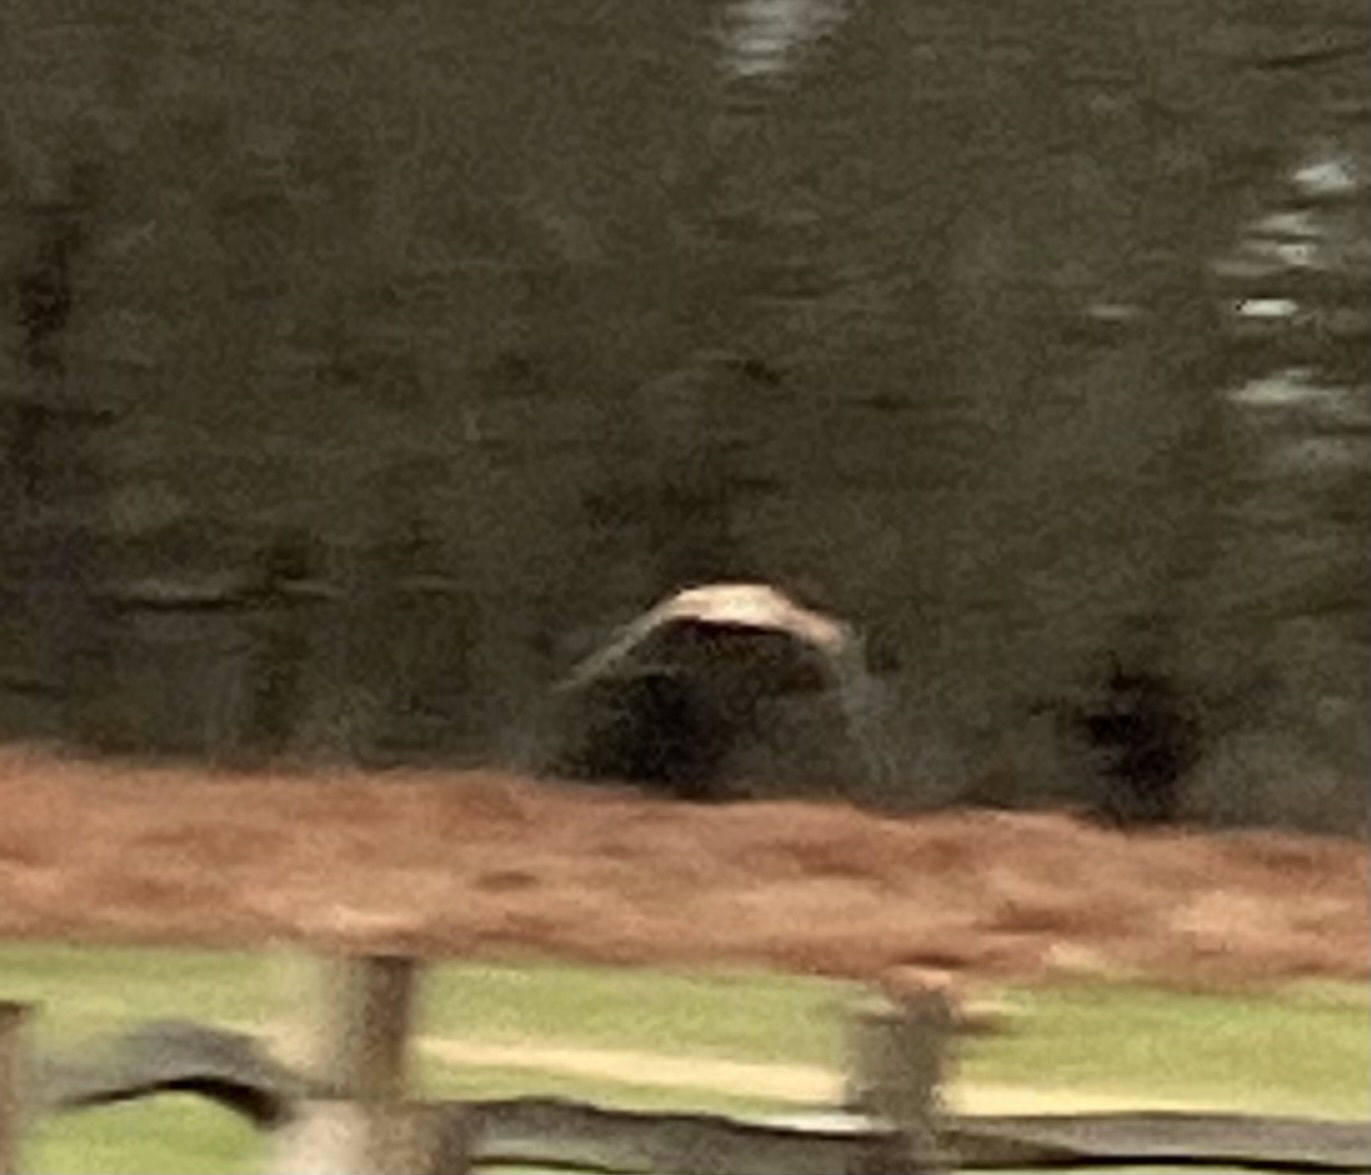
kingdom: Animalia
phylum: Chordata
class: Aves
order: Falconiformes
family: Falconidae
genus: Falco
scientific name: Falco tinnunculus
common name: Common kestrel
